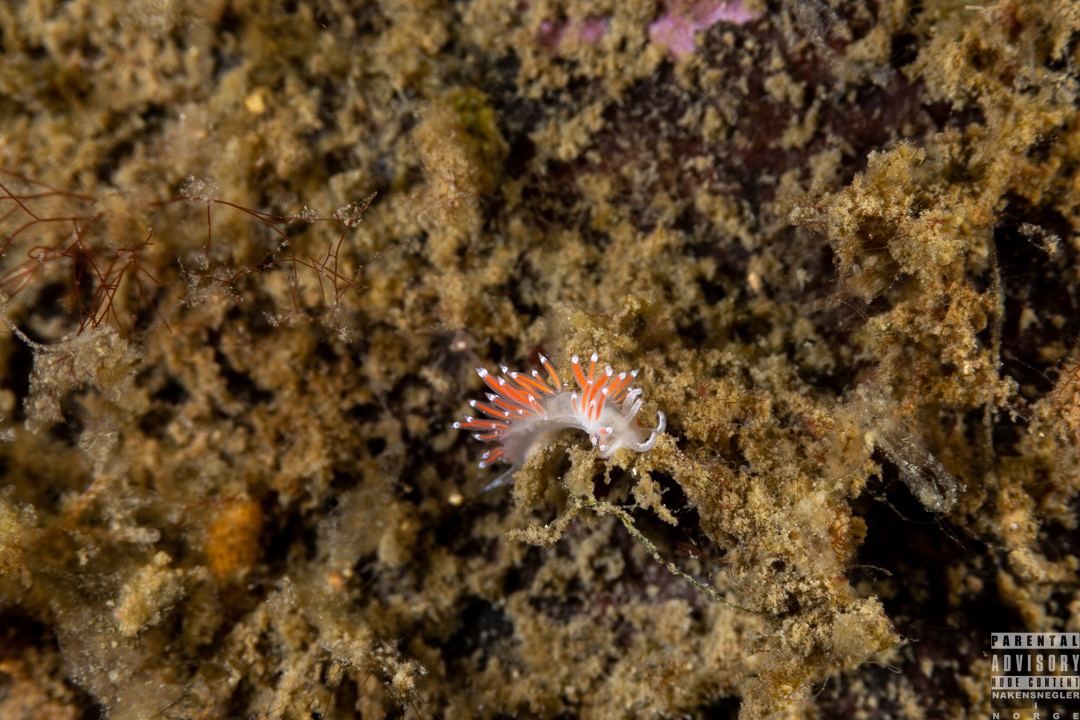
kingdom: Animalia
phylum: Mollusca
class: Gastropoda
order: Nudibranchia
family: Coryphellidae
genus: Coryphella
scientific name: Coryphella gracilis
